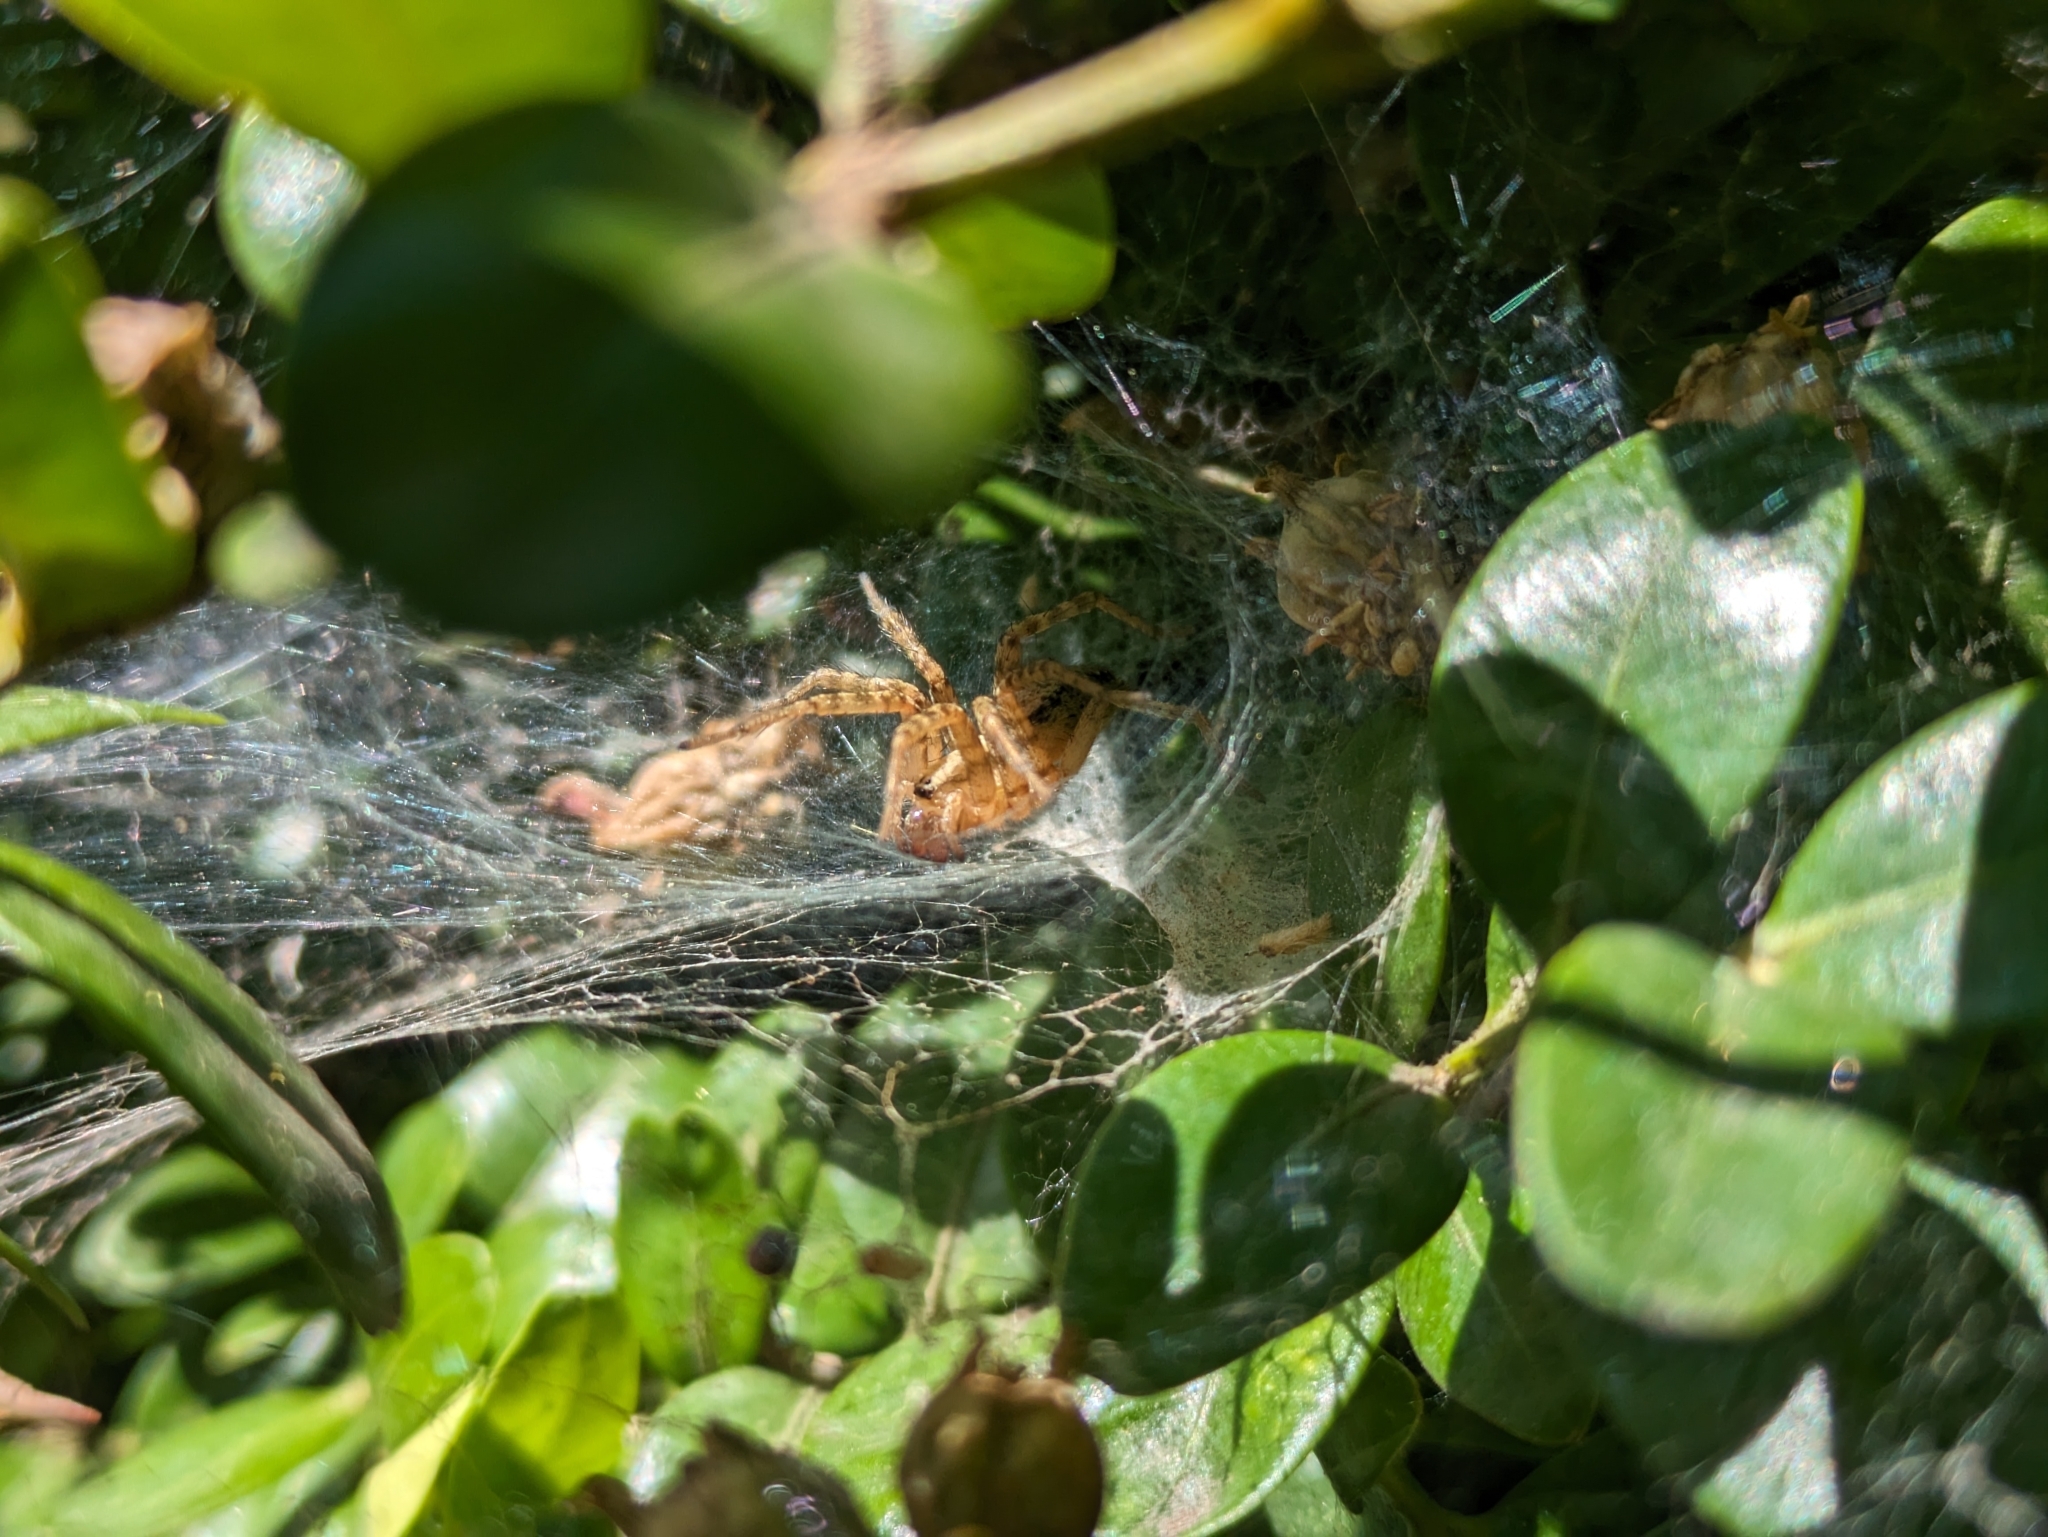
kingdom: Animalia
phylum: Arthropoda
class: Arachnida
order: Araneae
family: Agelenidae
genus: Hololena
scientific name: Hololena
